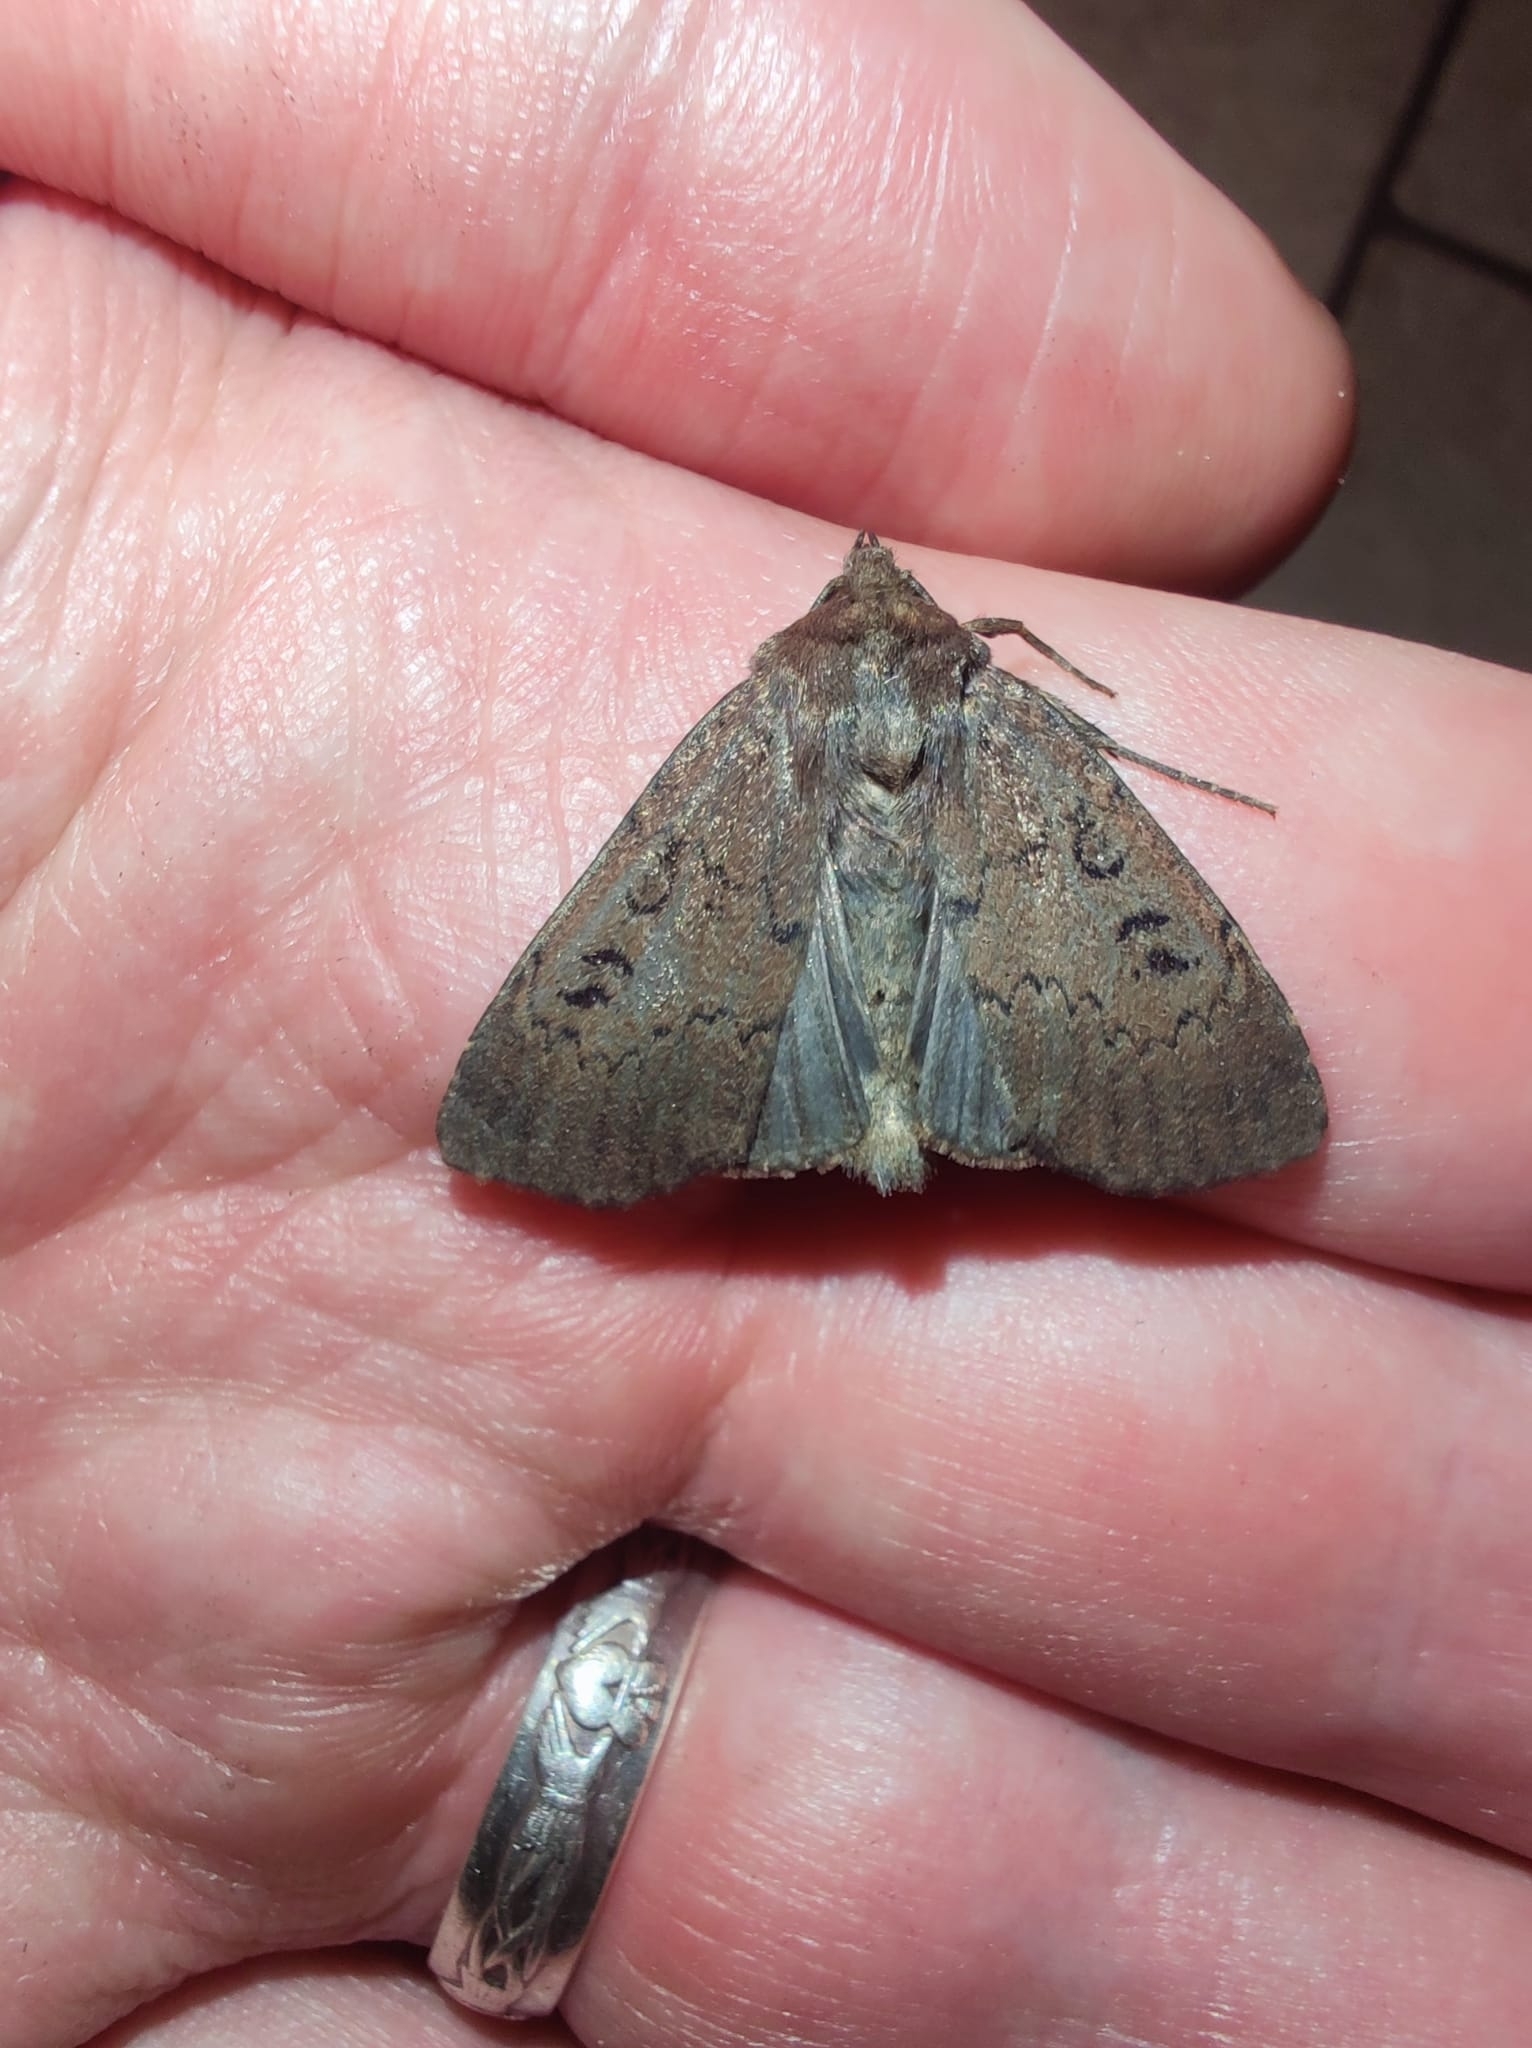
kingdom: Animalia
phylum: Arthropoda
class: Insecta
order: Lepidoptera
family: Noctuidae
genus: Graphiphora
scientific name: Graphiphora augur
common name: Double dart
